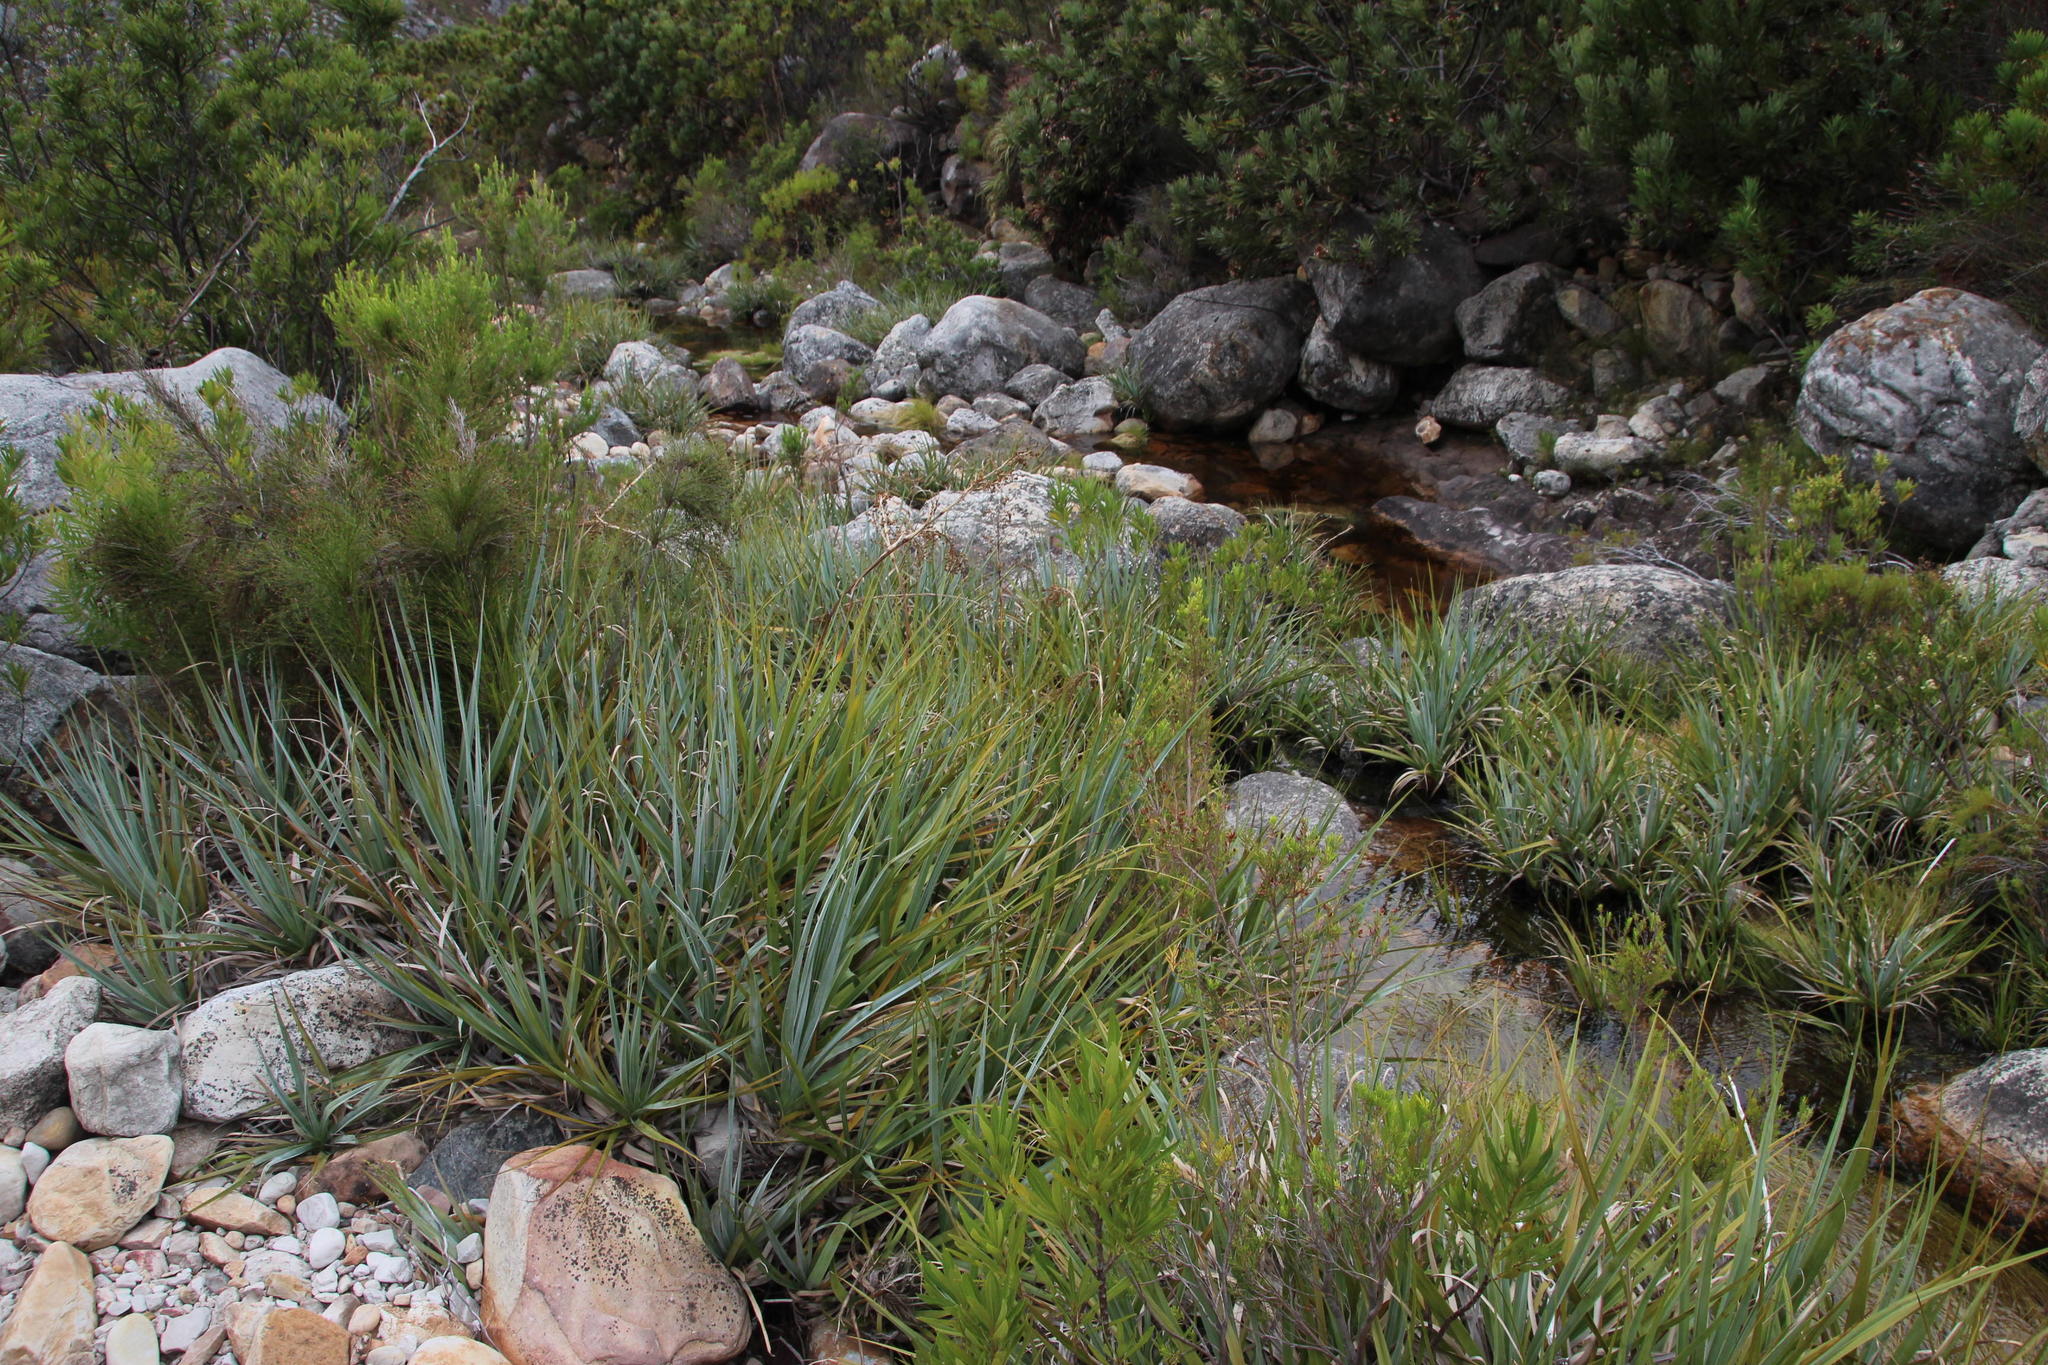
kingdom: Plantae
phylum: Tracheophyta
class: Liliopsida
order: Poales
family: Thurniaceae
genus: Prionium
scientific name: Prionium serratum
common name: Palmiet
